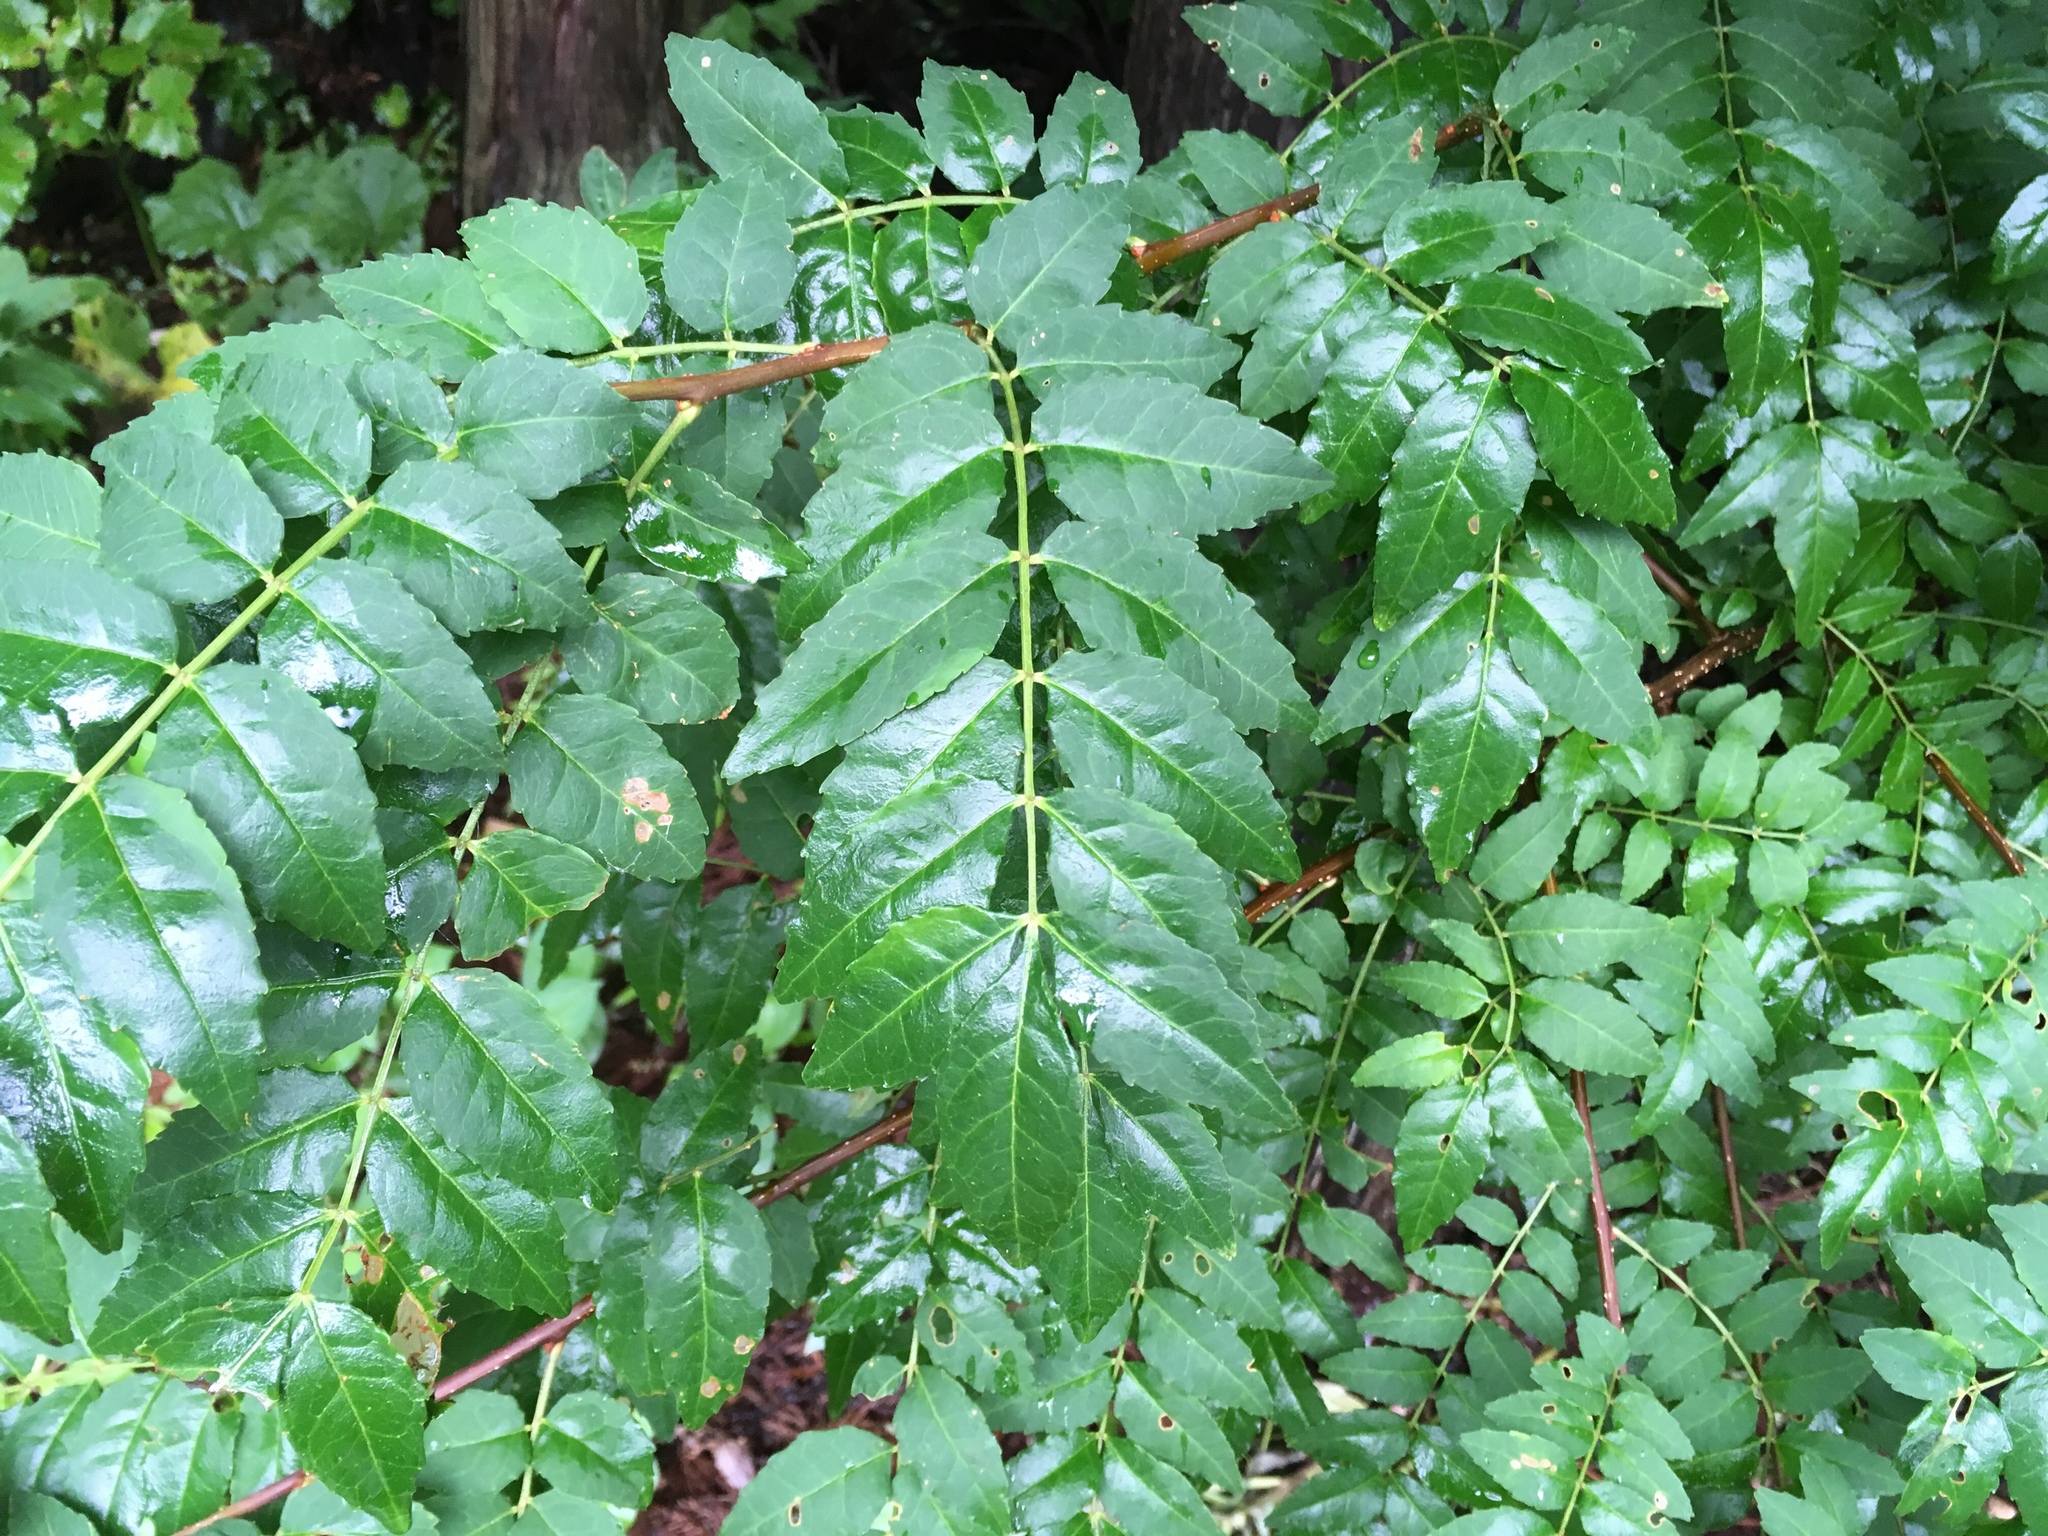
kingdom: Plantae
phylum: Tracheophyta
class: Magnoliopsida
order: Sapindales
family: Rutaceae
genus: Zanthoxylum
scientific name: Zanthoxylum piperitum
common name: Japanese-pepper
